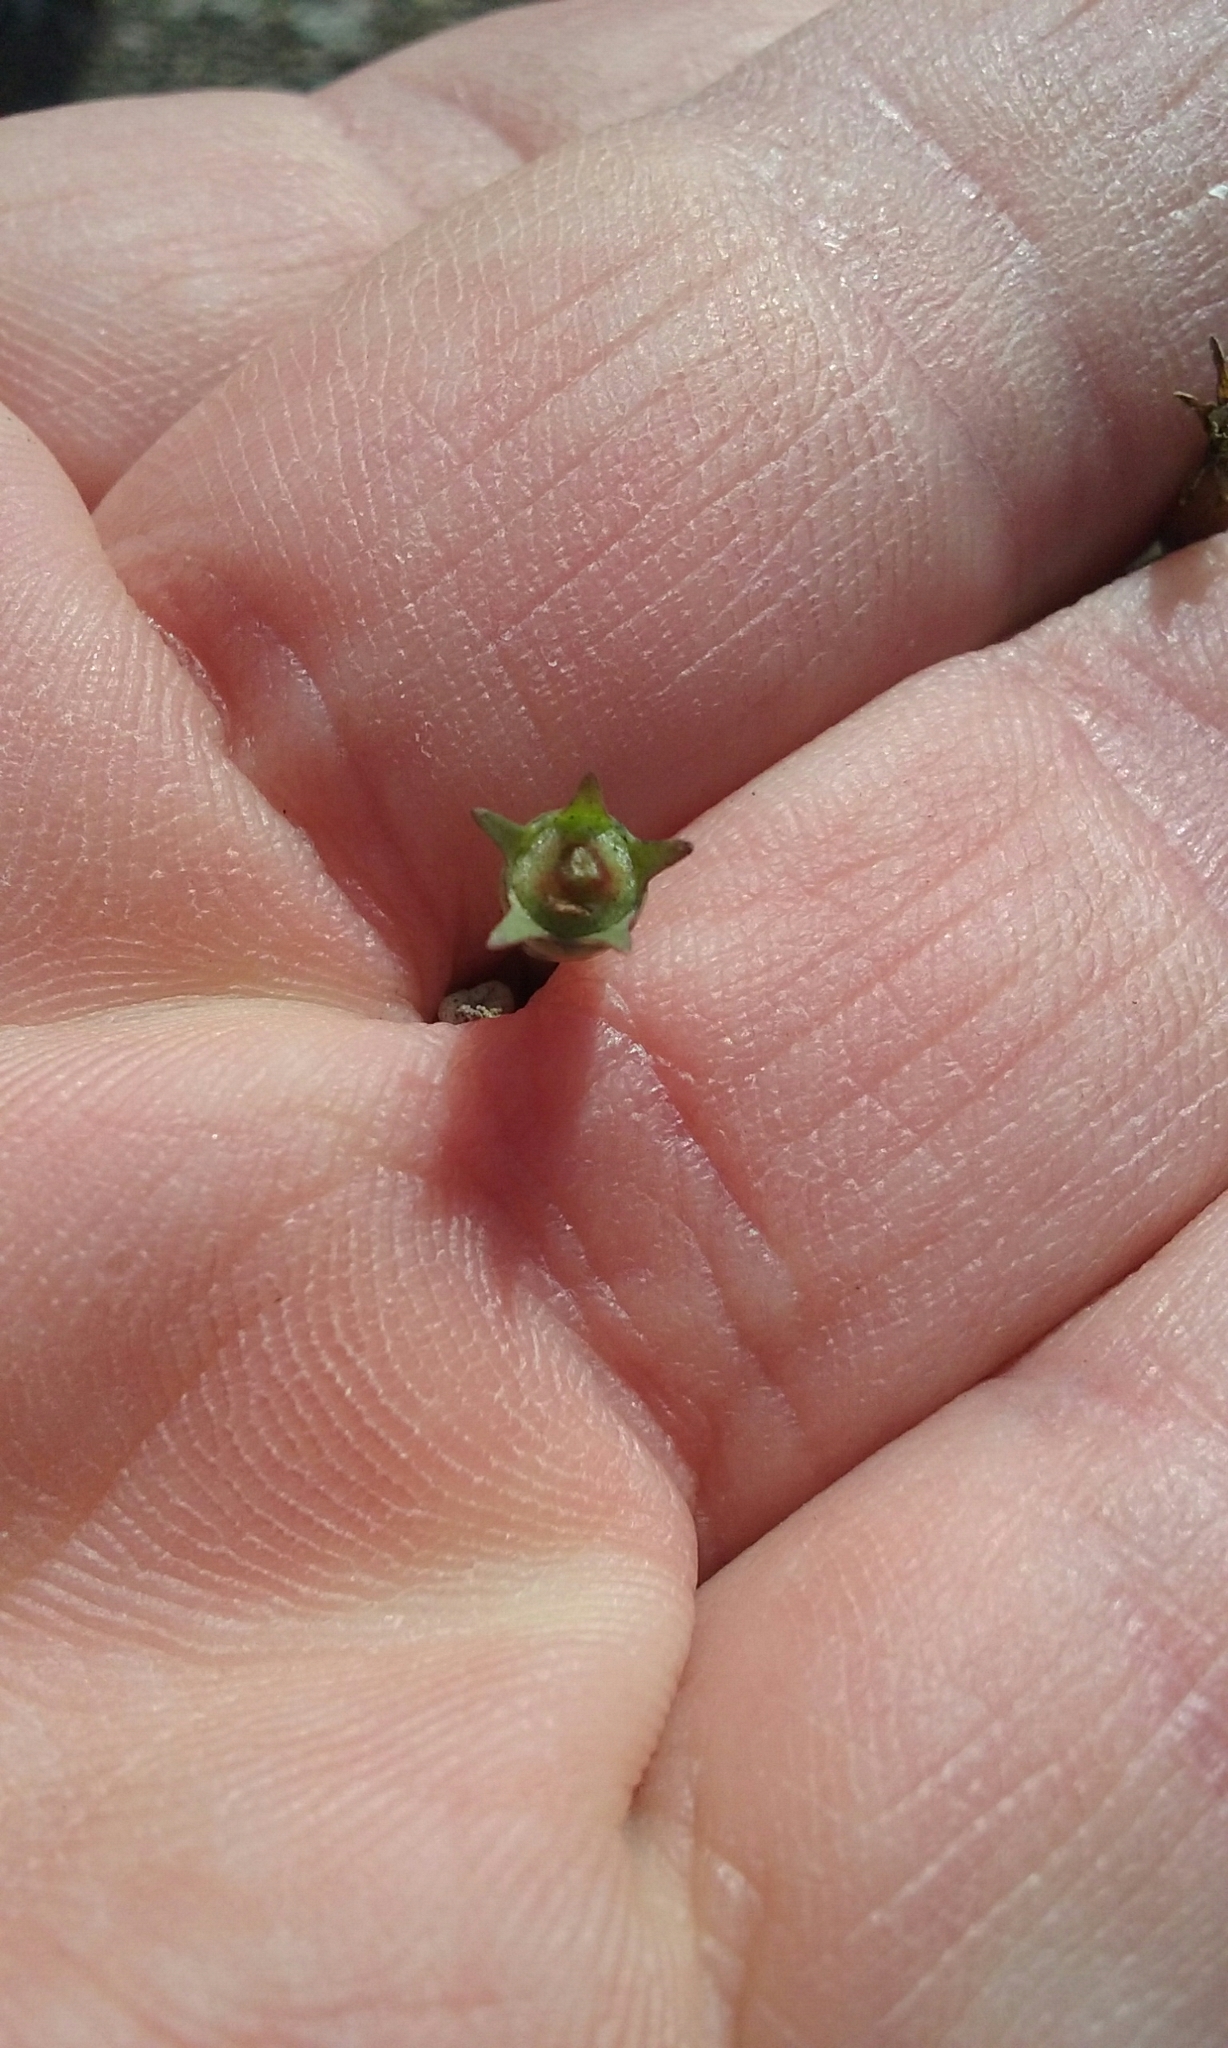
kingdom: Plantae
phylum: Tracheophyta
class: Magnoliopsida
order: Asterales
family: Campanulaceae
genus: Wahlenbergia
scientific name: Wahlenbergia marginata
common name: Southern rockbell
